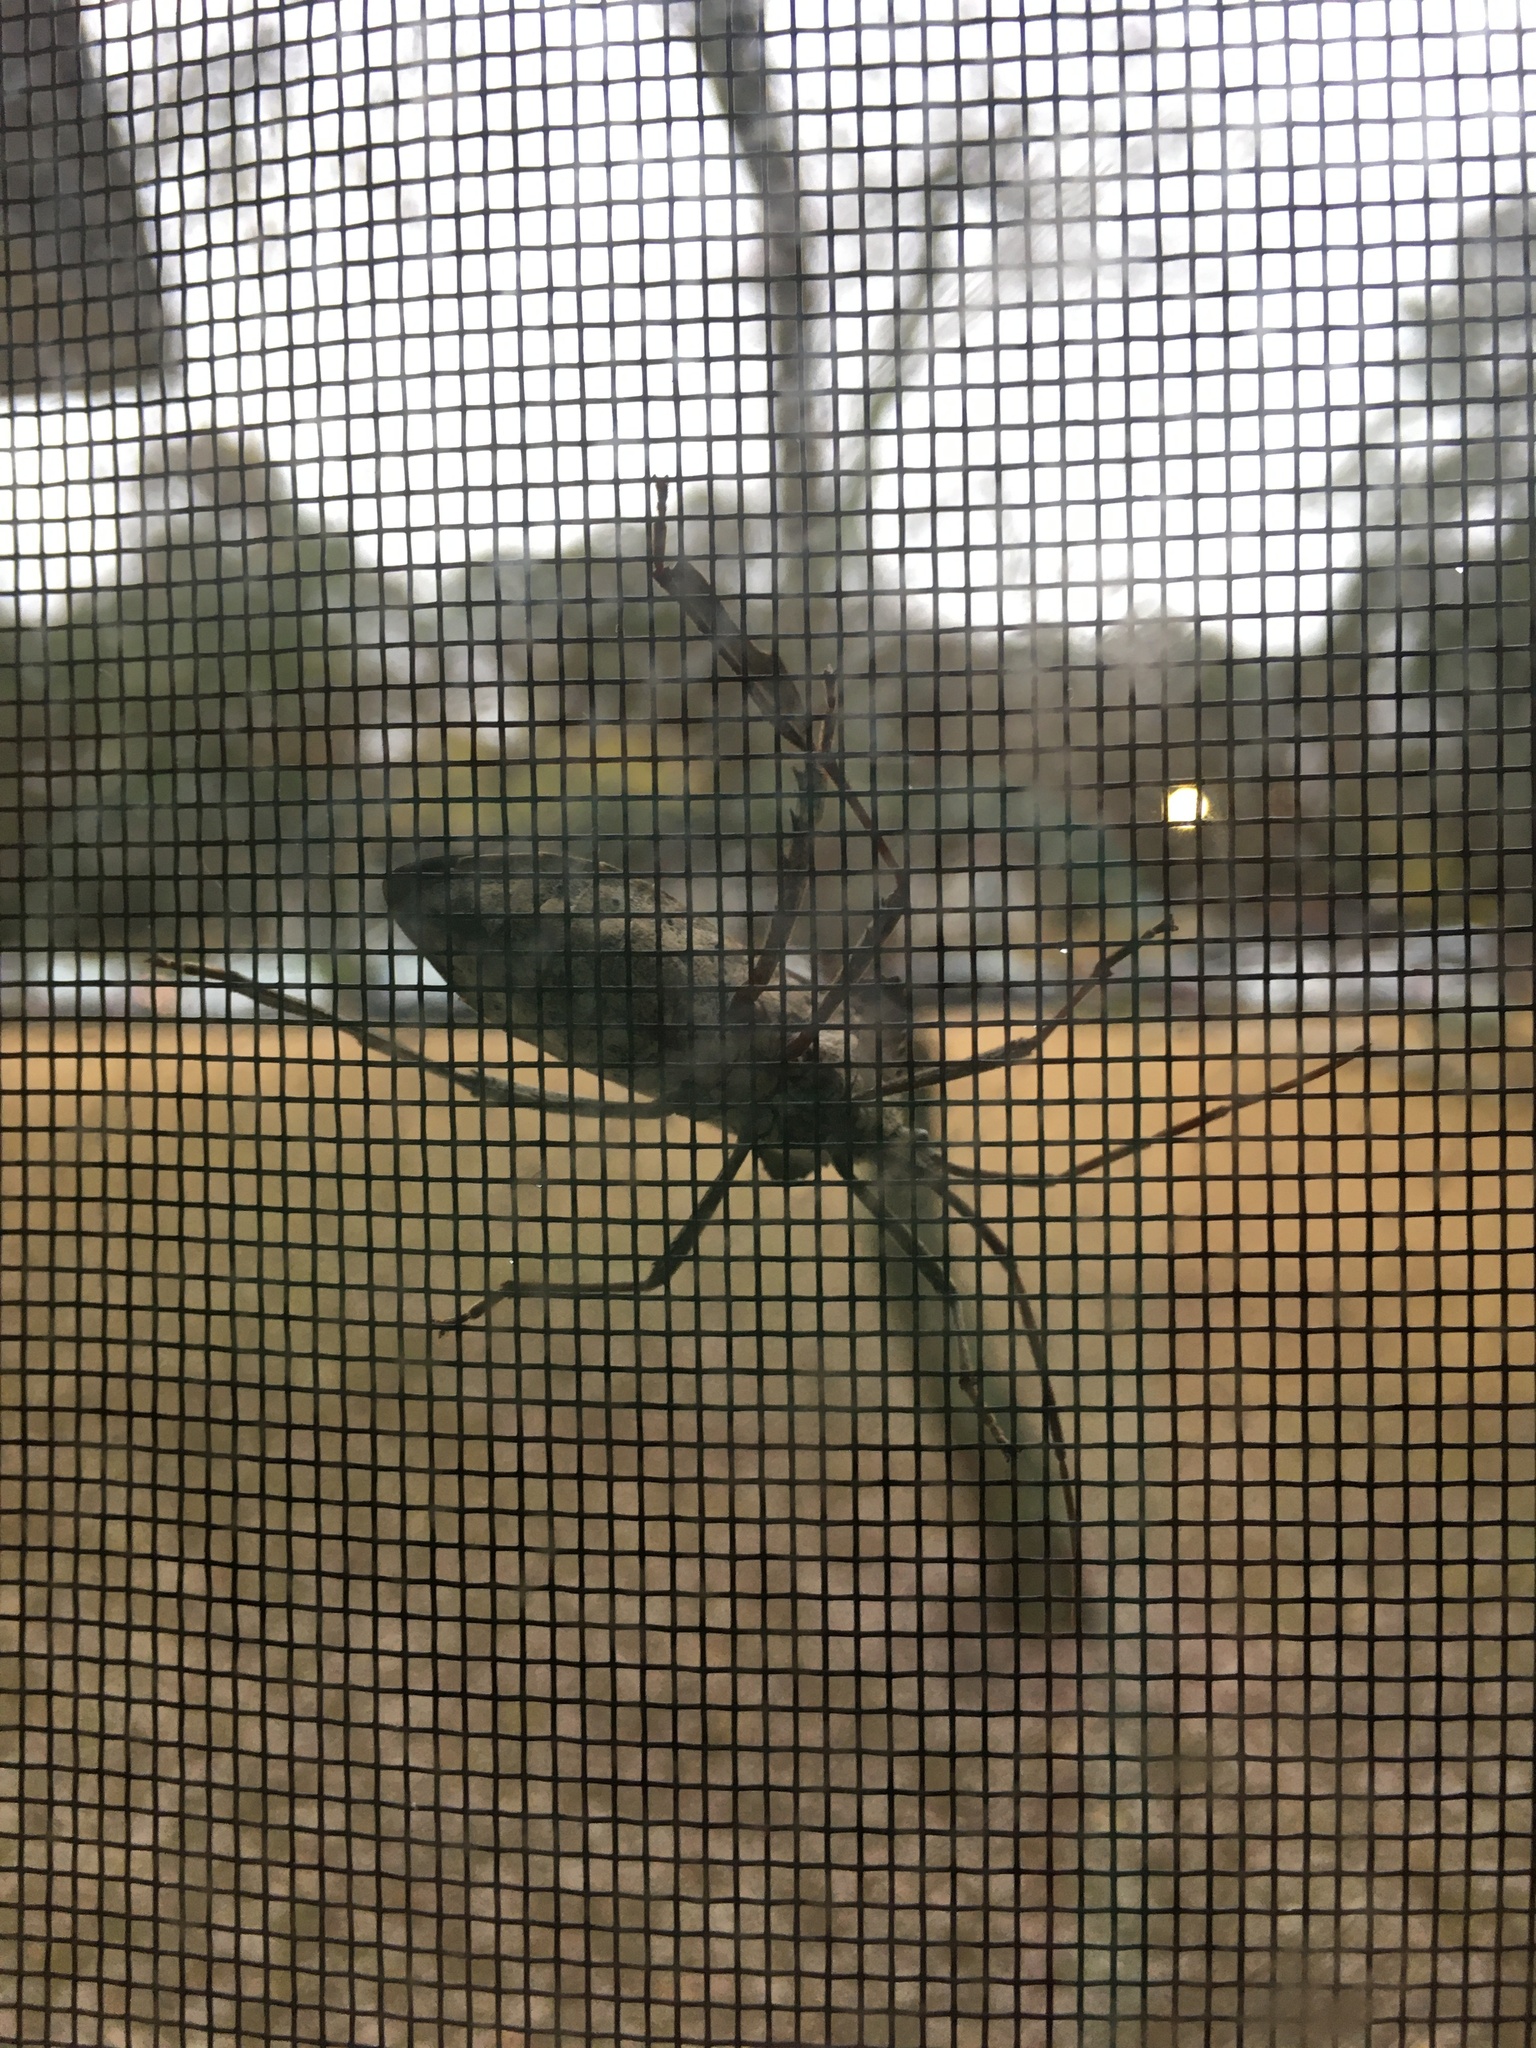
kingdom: Animalia
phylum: Arthropoda
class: Insecta
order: Hemiptera
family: Coreidae
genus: Acanthocephala
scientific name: Acanthocephala declivis
